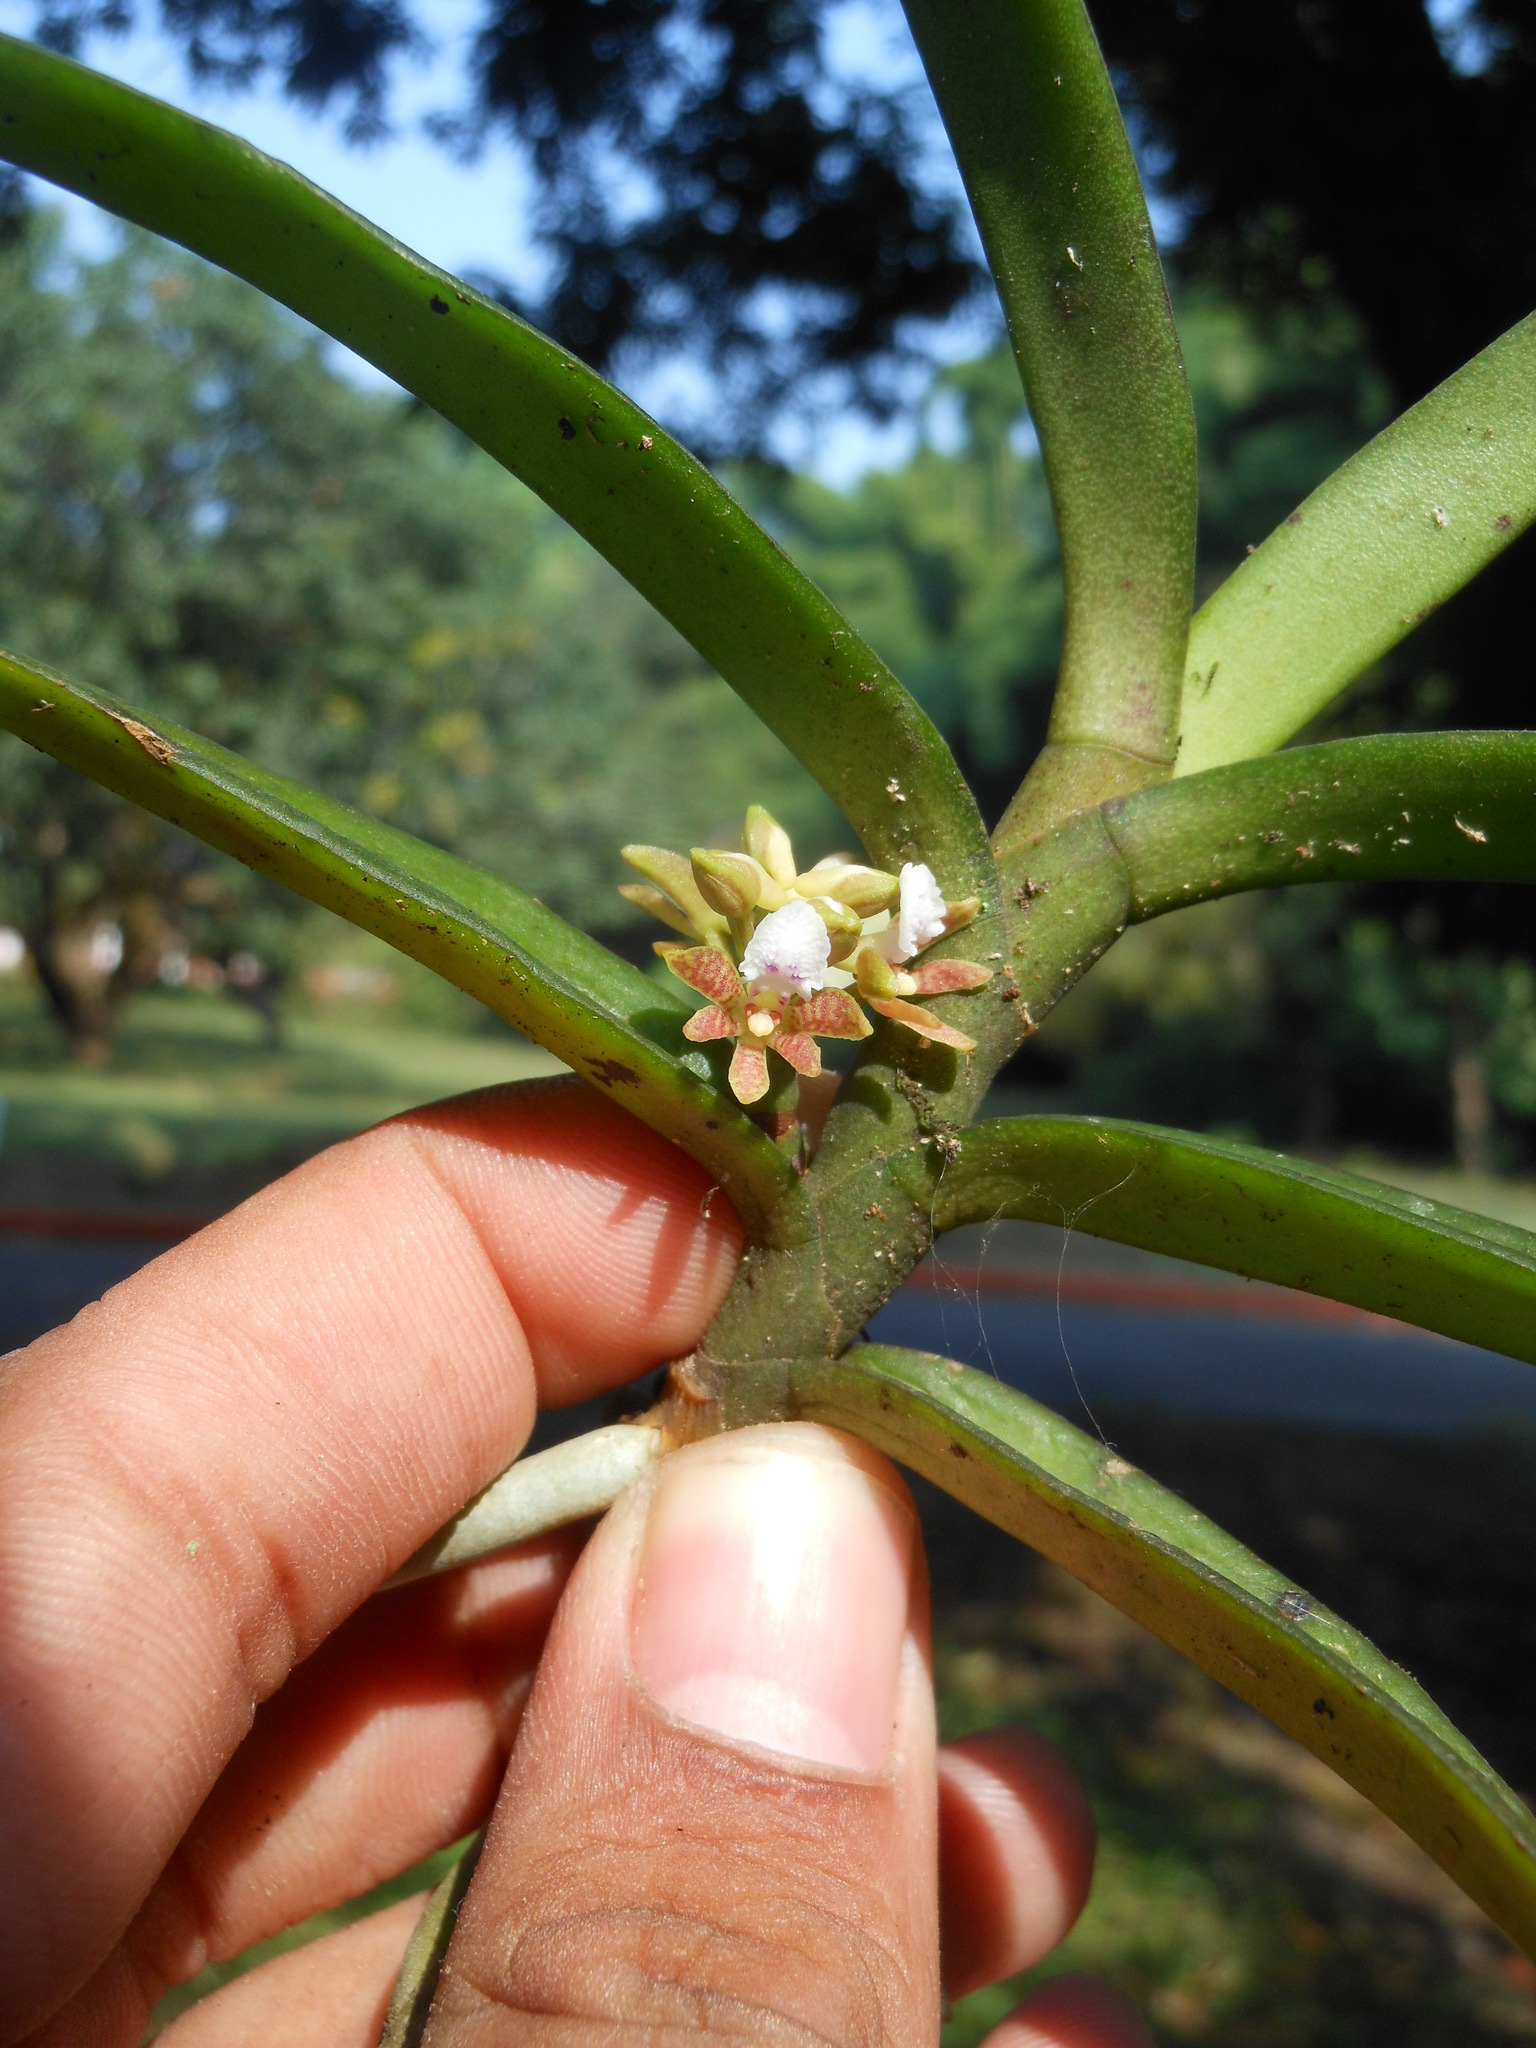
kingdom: Plantae
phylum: Tracheophyta
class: Liliopsida
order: Asparagales
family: Orchidaceae
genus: Acampe
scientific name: Acampe carinata
